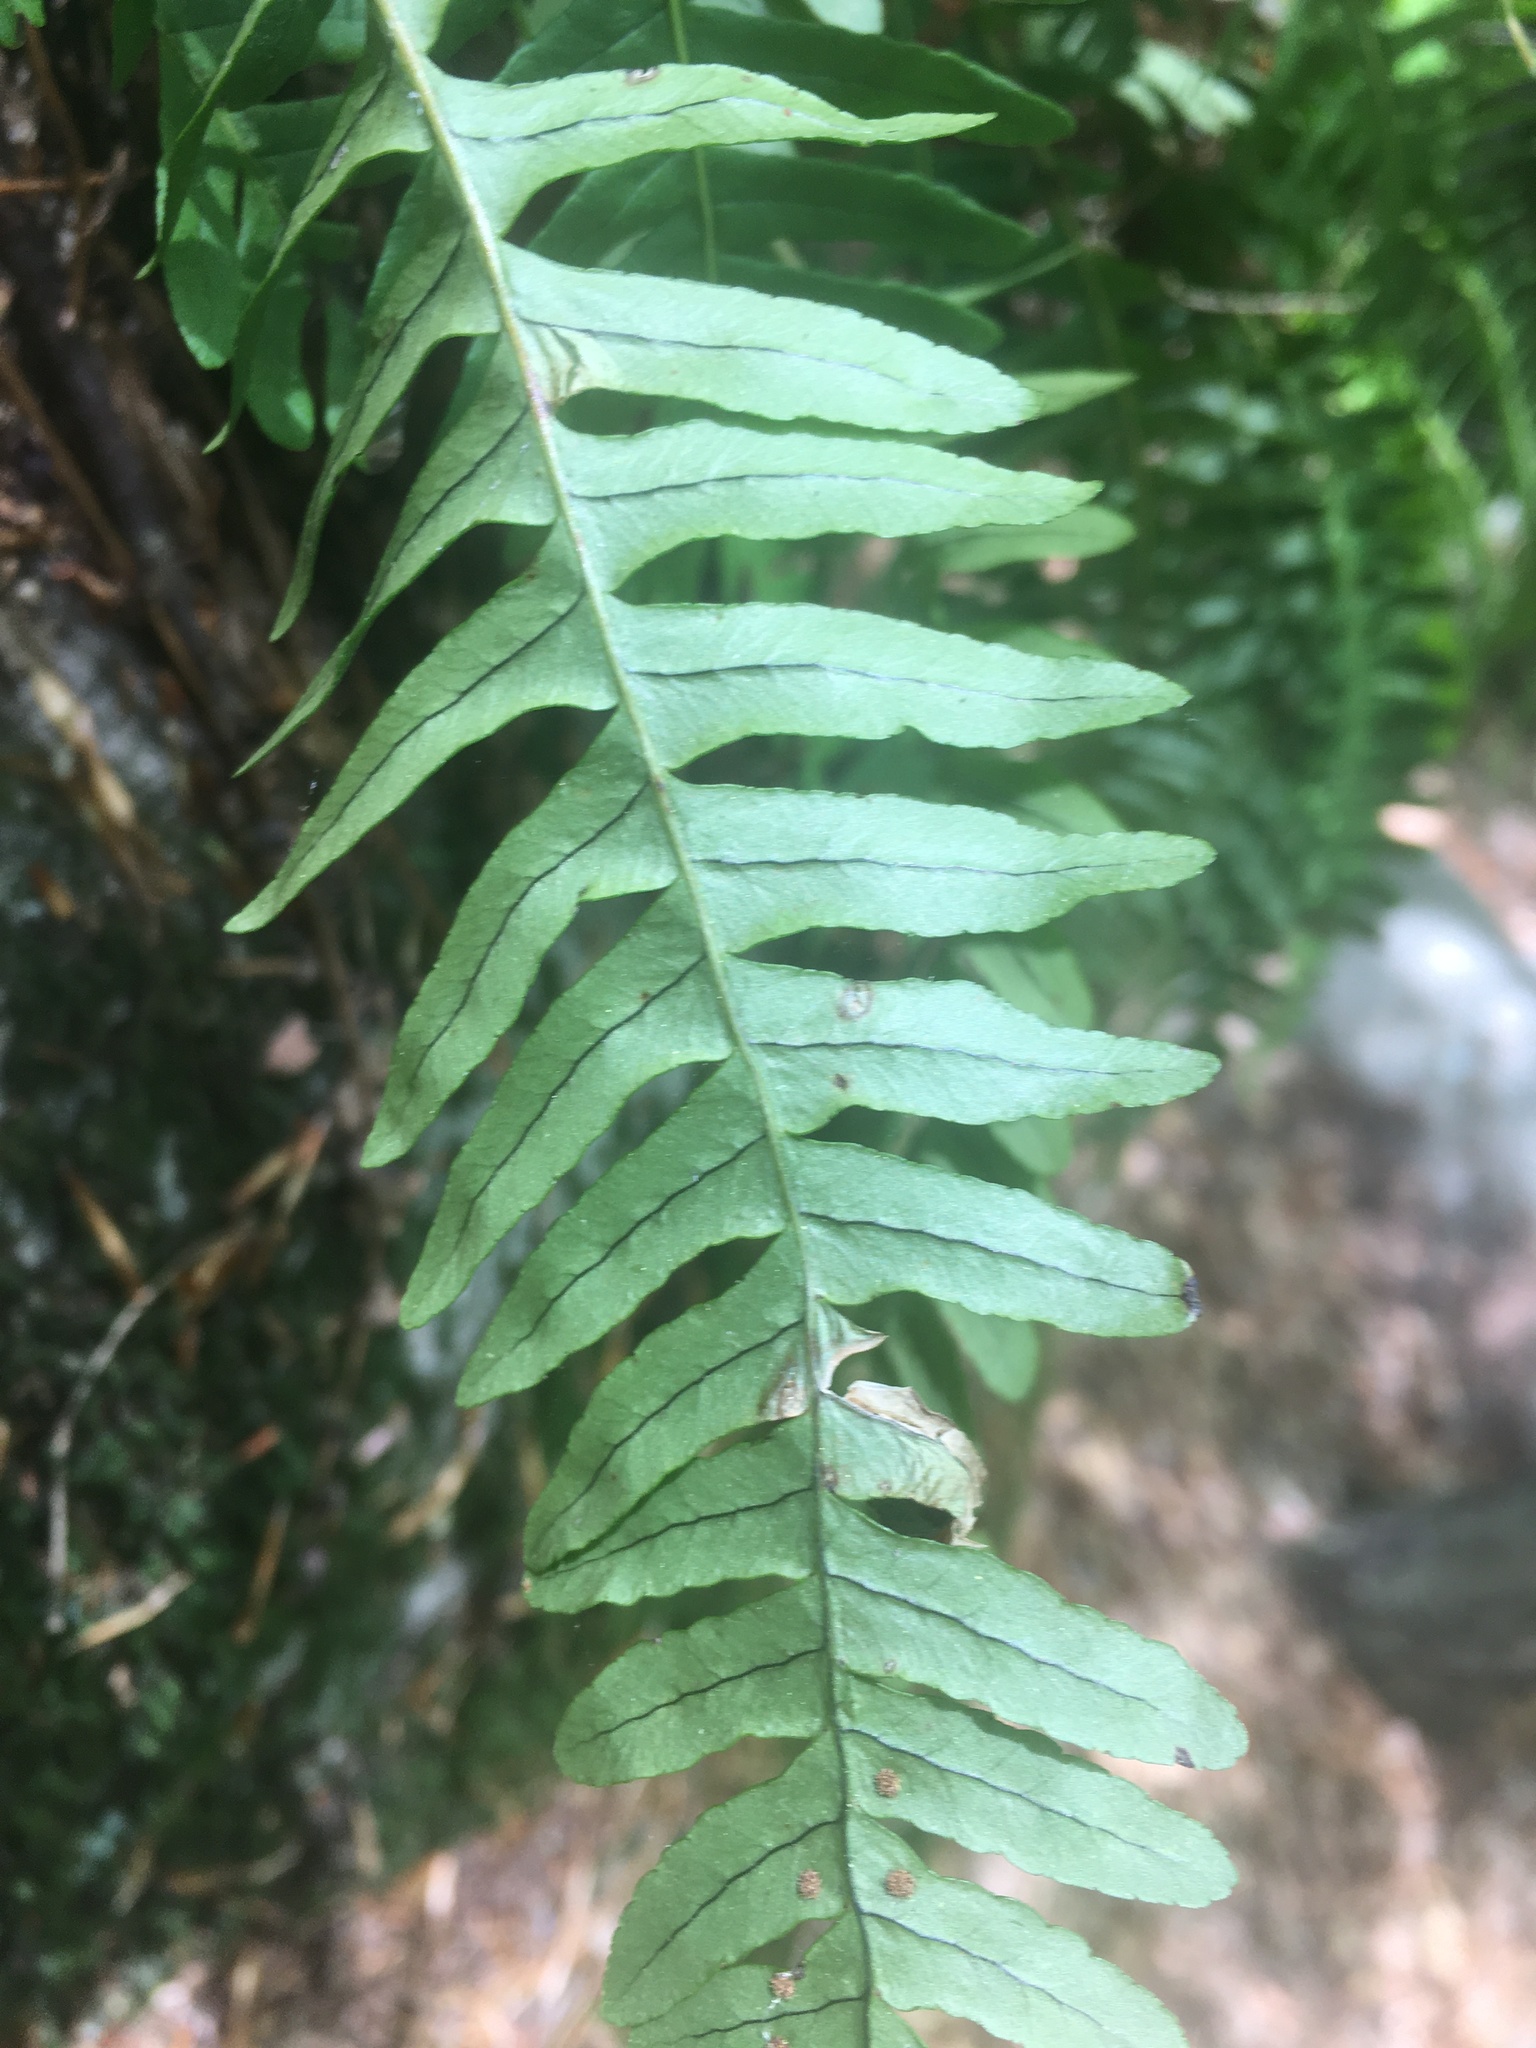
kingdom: Plantae
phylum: Tracheophyta
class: Polypodiopsida
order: Polypodiales
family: Polypodiaceae
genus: Polypodium
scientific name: Polypodium virginianum
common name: American wall fern
